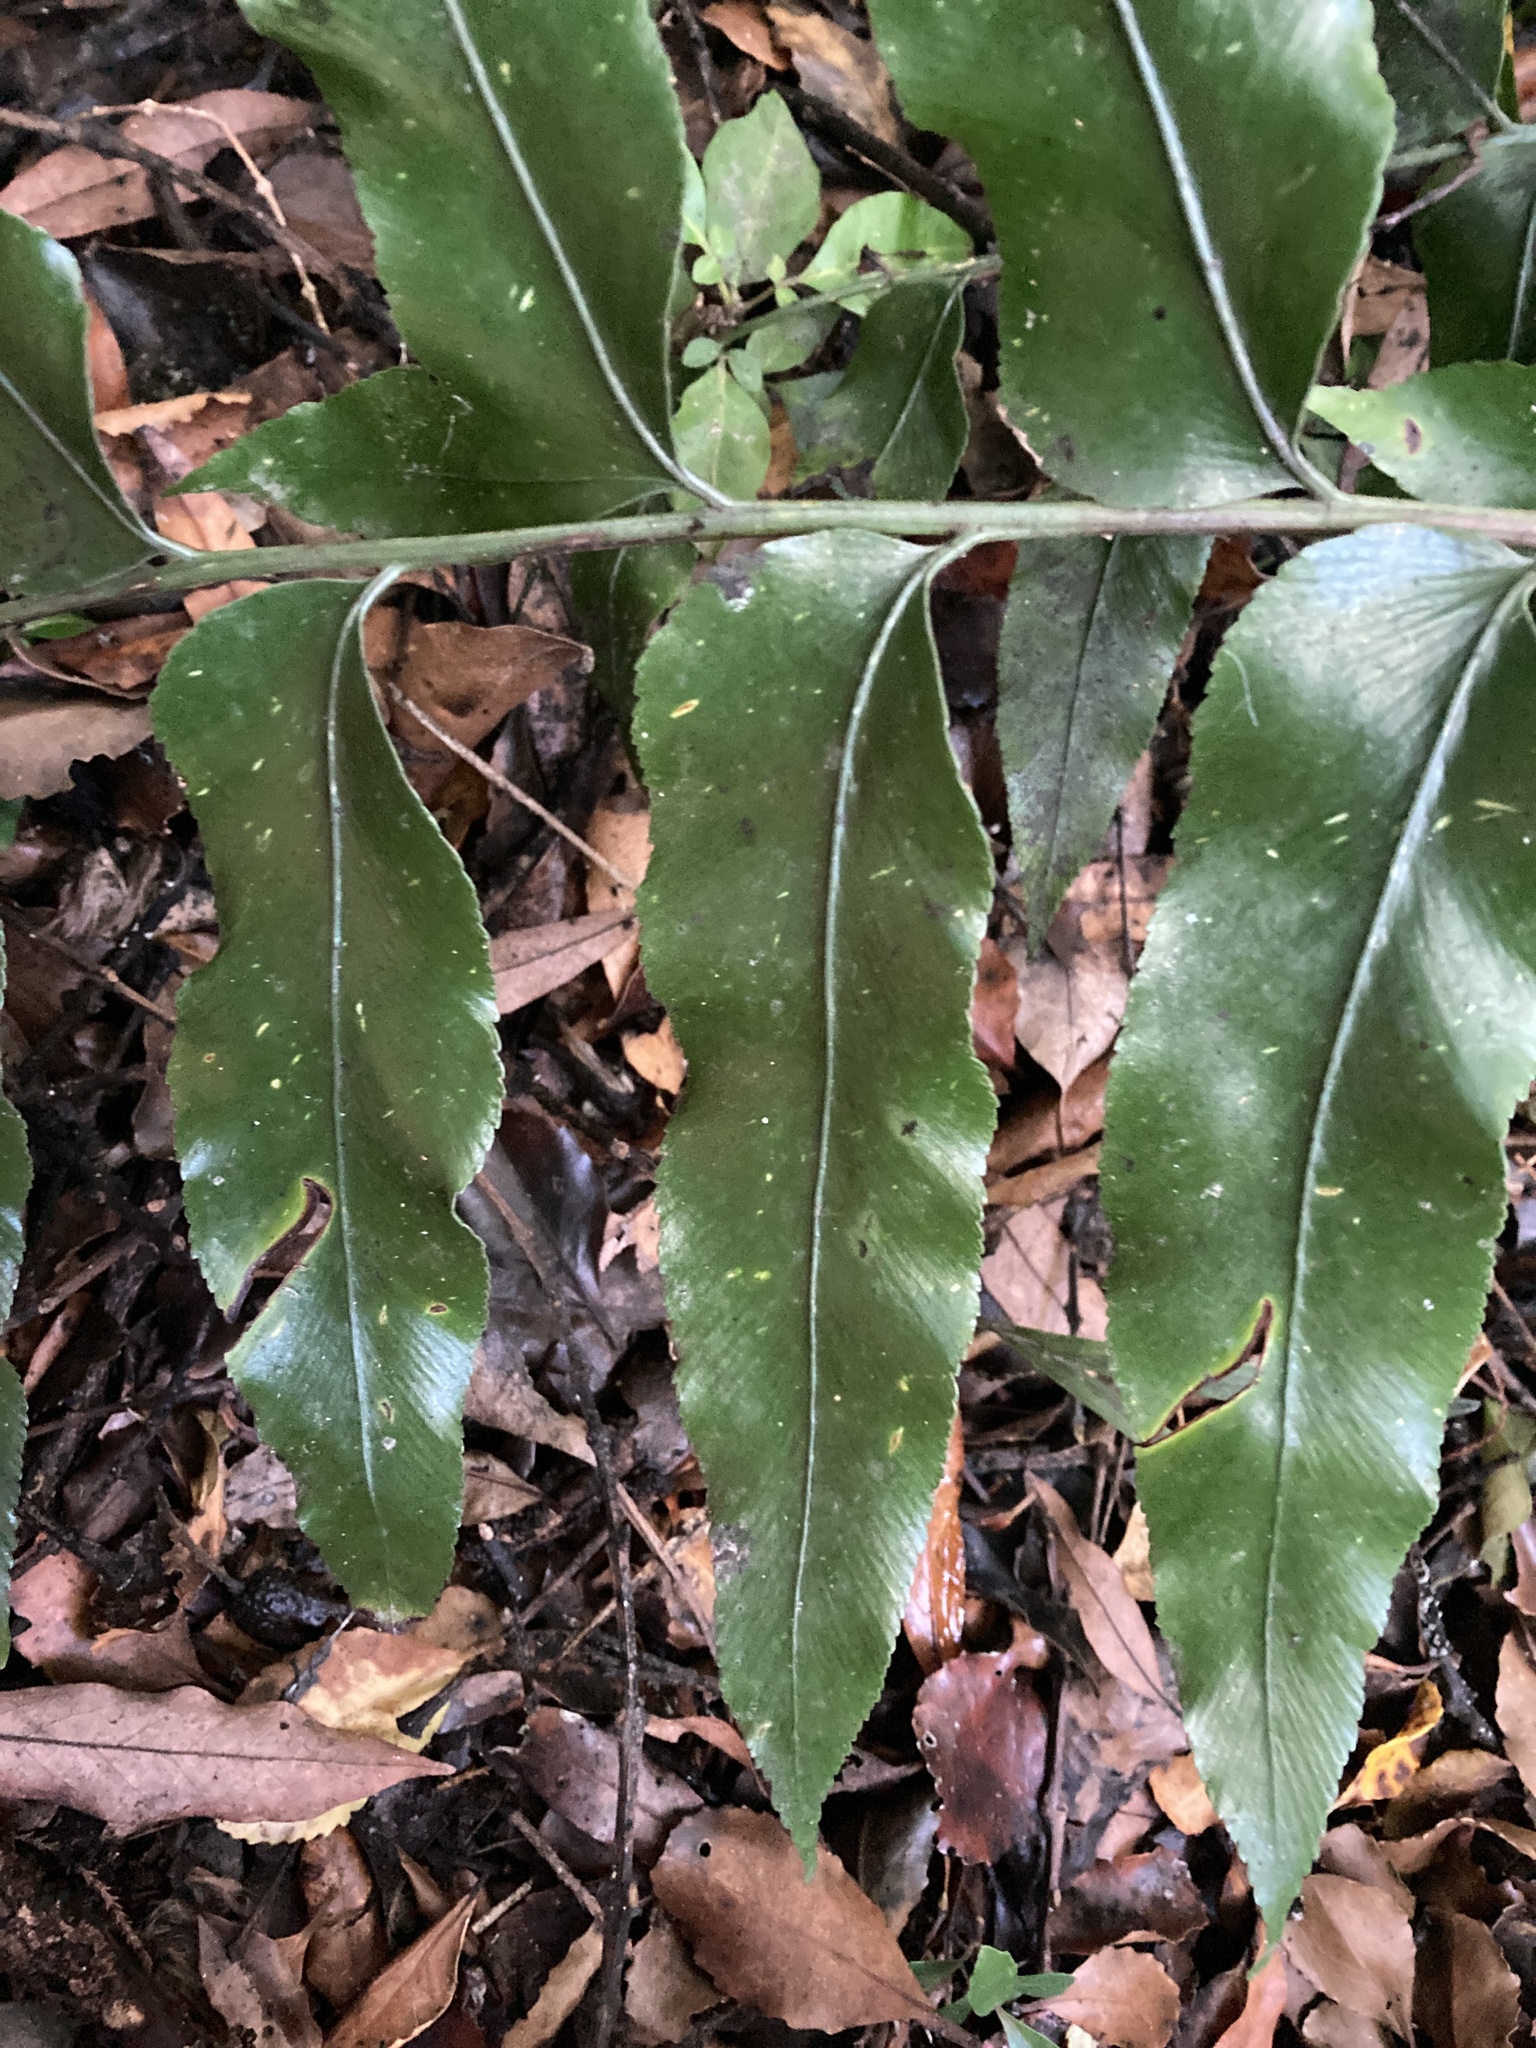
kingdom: Plantae
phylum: Tracheophyta
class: Polypodiopsida
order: Polypodiales
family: Aspleniaceae
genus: Asplenium
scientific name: Asplenium oblongifolium
